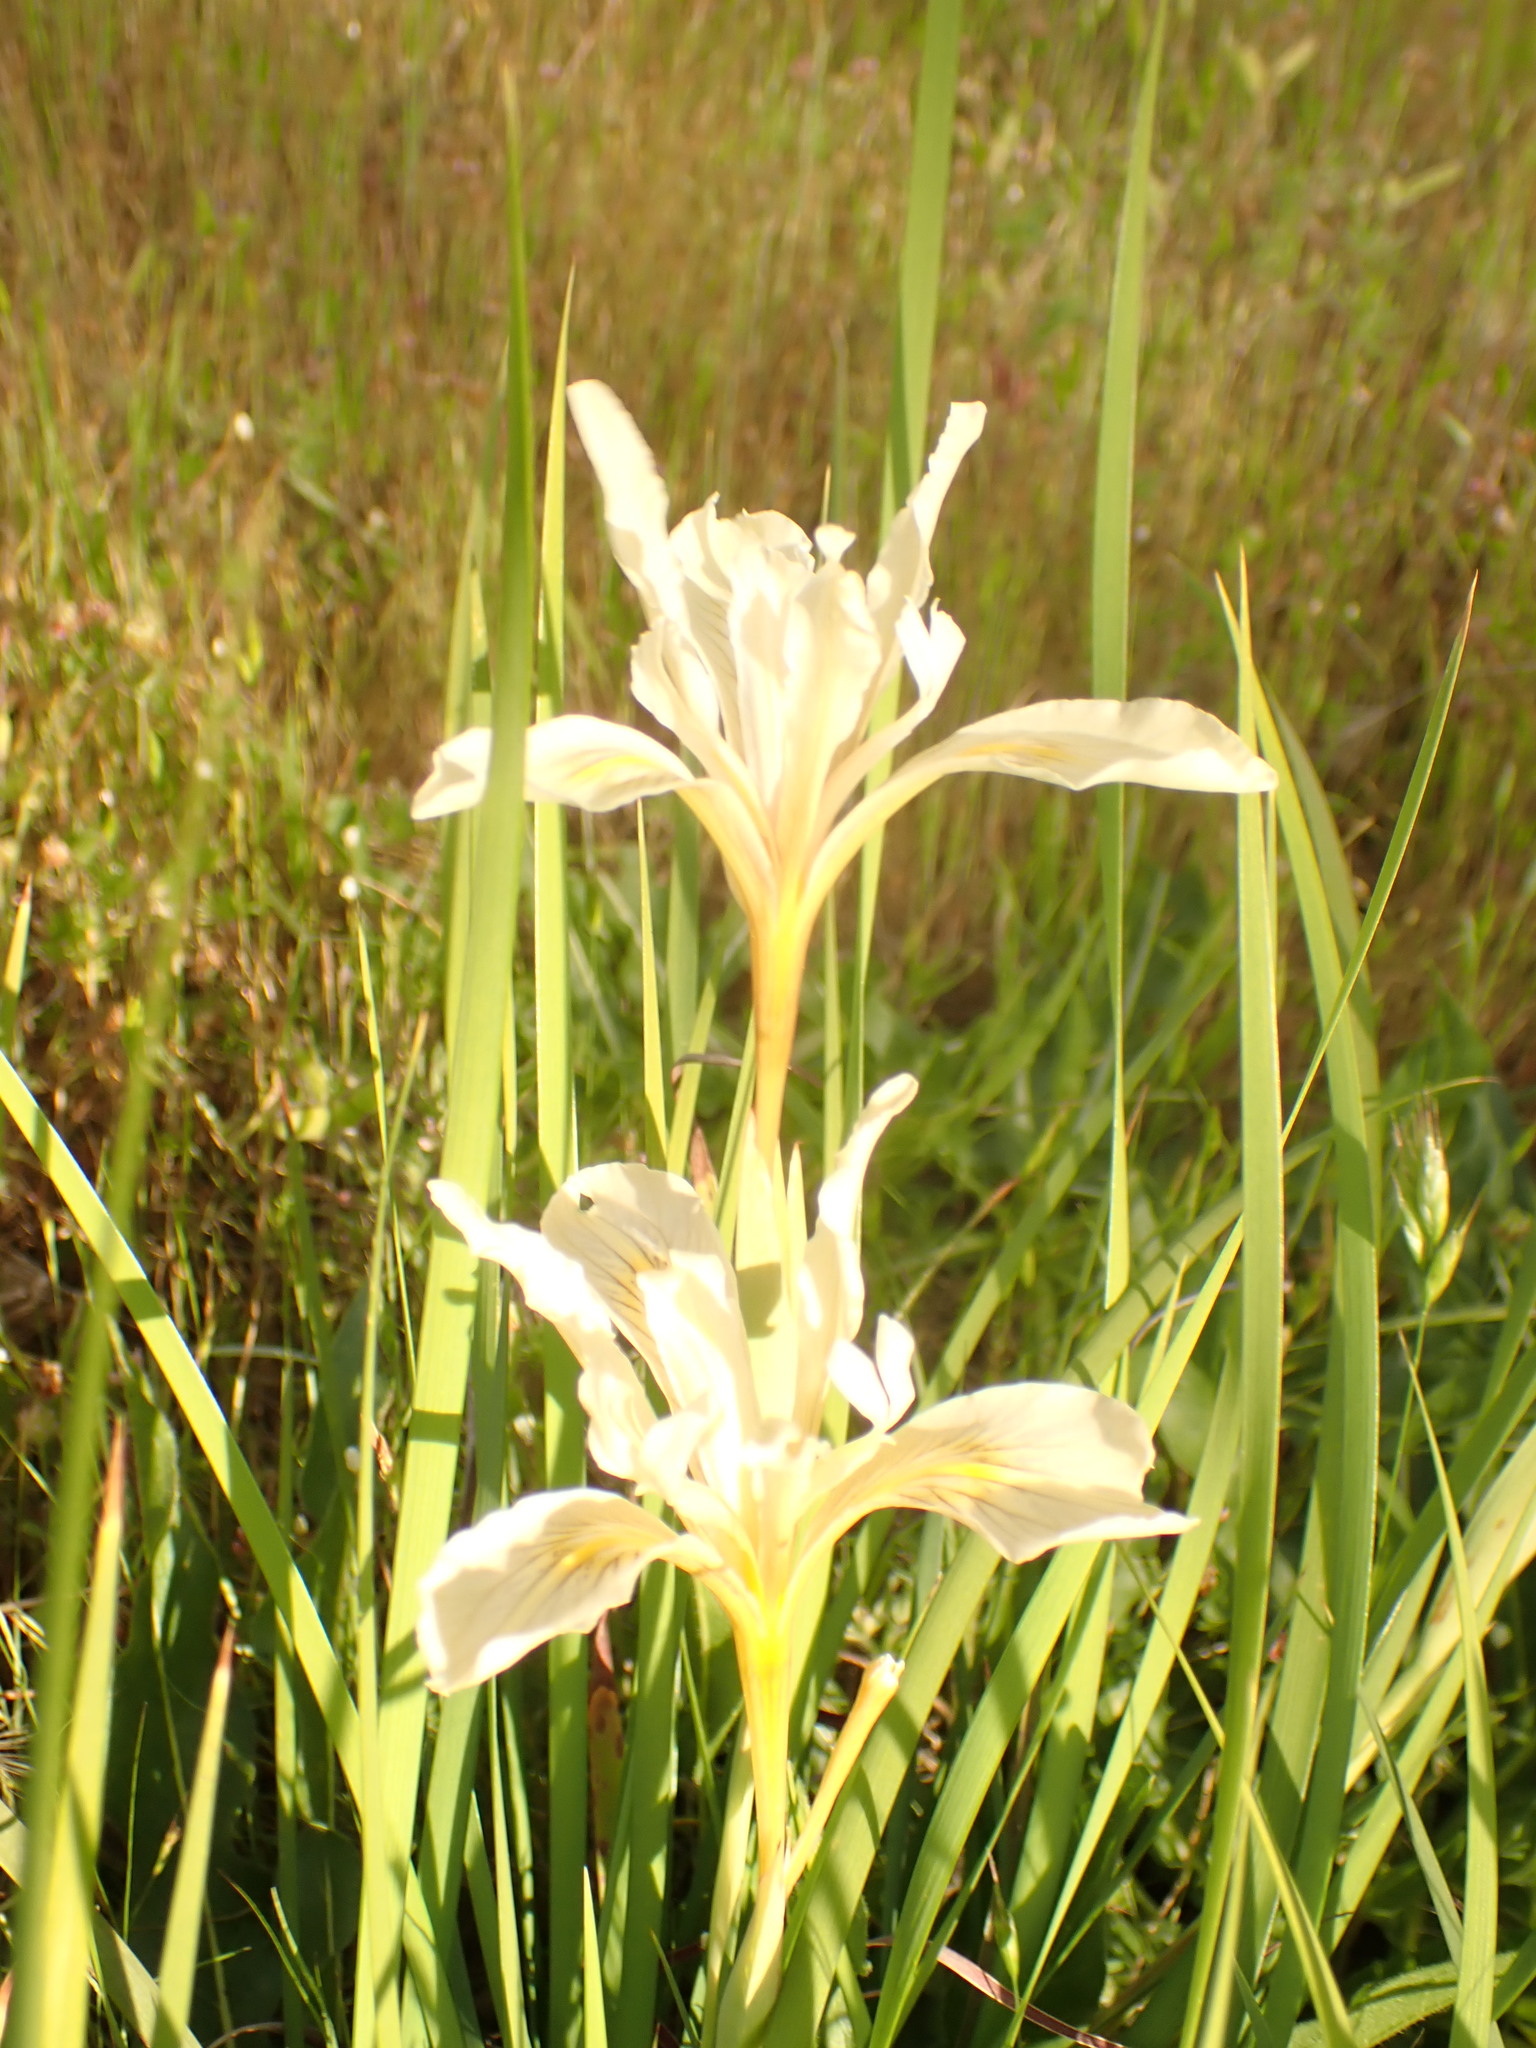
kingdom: Plantae
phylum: Tracheophyta
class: Liliopsida
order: Asparagales
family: Iridaceae
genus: Iris
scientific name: Iris fernaldii
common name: Fernald's iris
